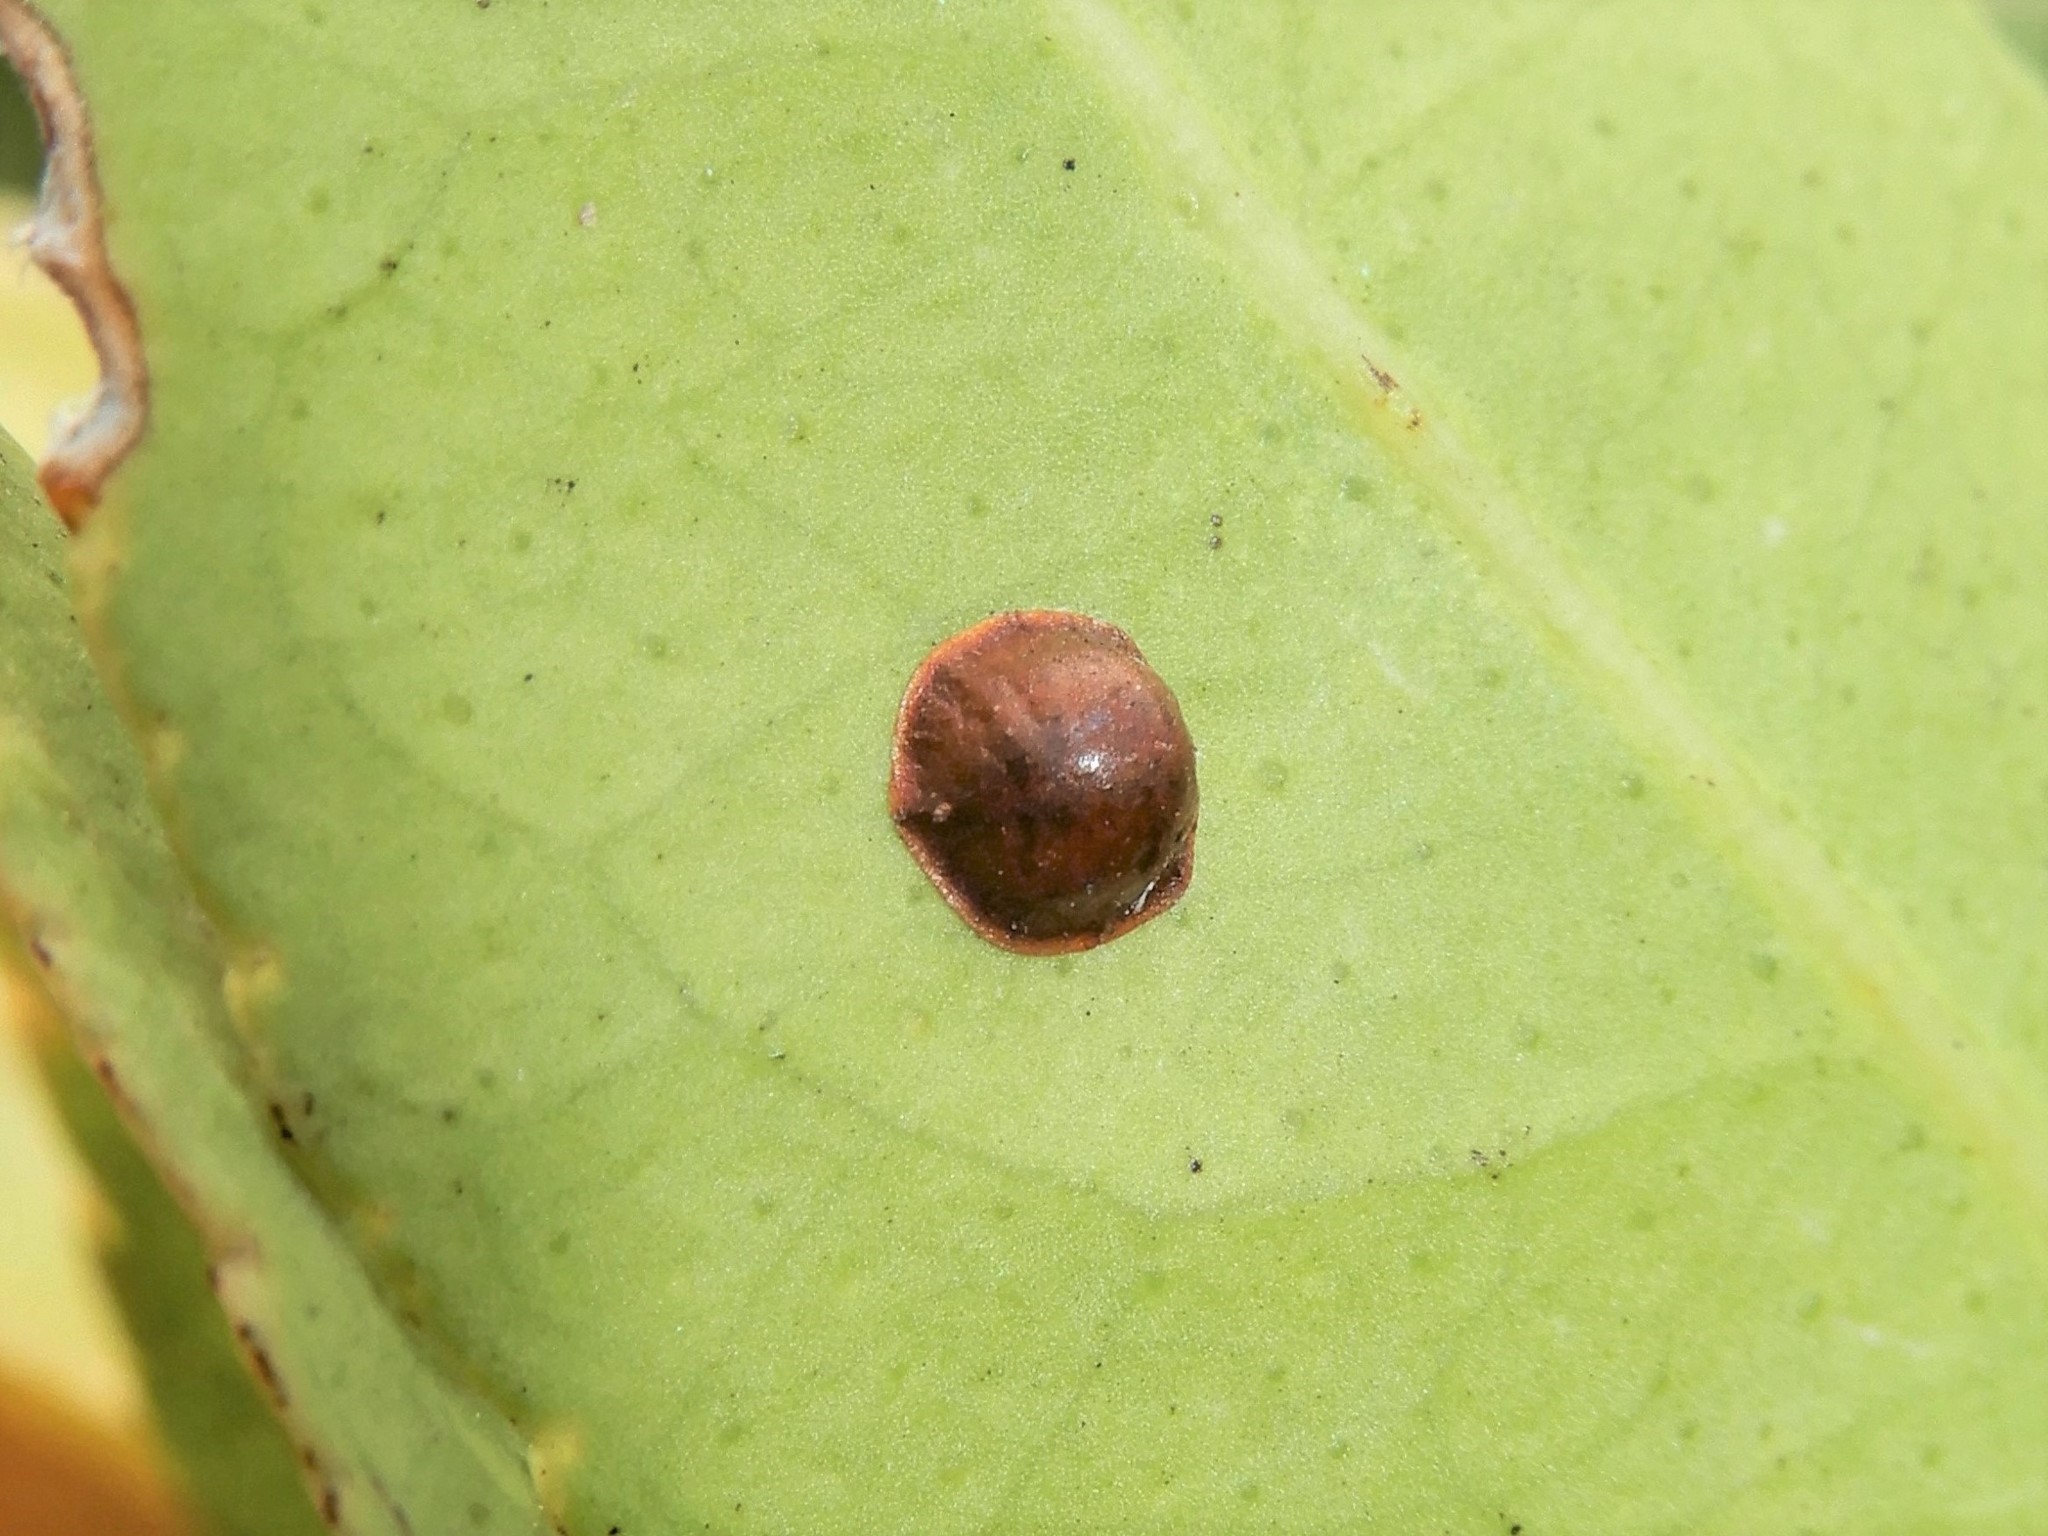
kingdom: Animalia
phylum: Arthropoda
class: Insecta
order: Hemiptera
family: Coccidae
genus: Saissetia
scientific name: Saissetia coffeae
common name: Hemispherical scale
